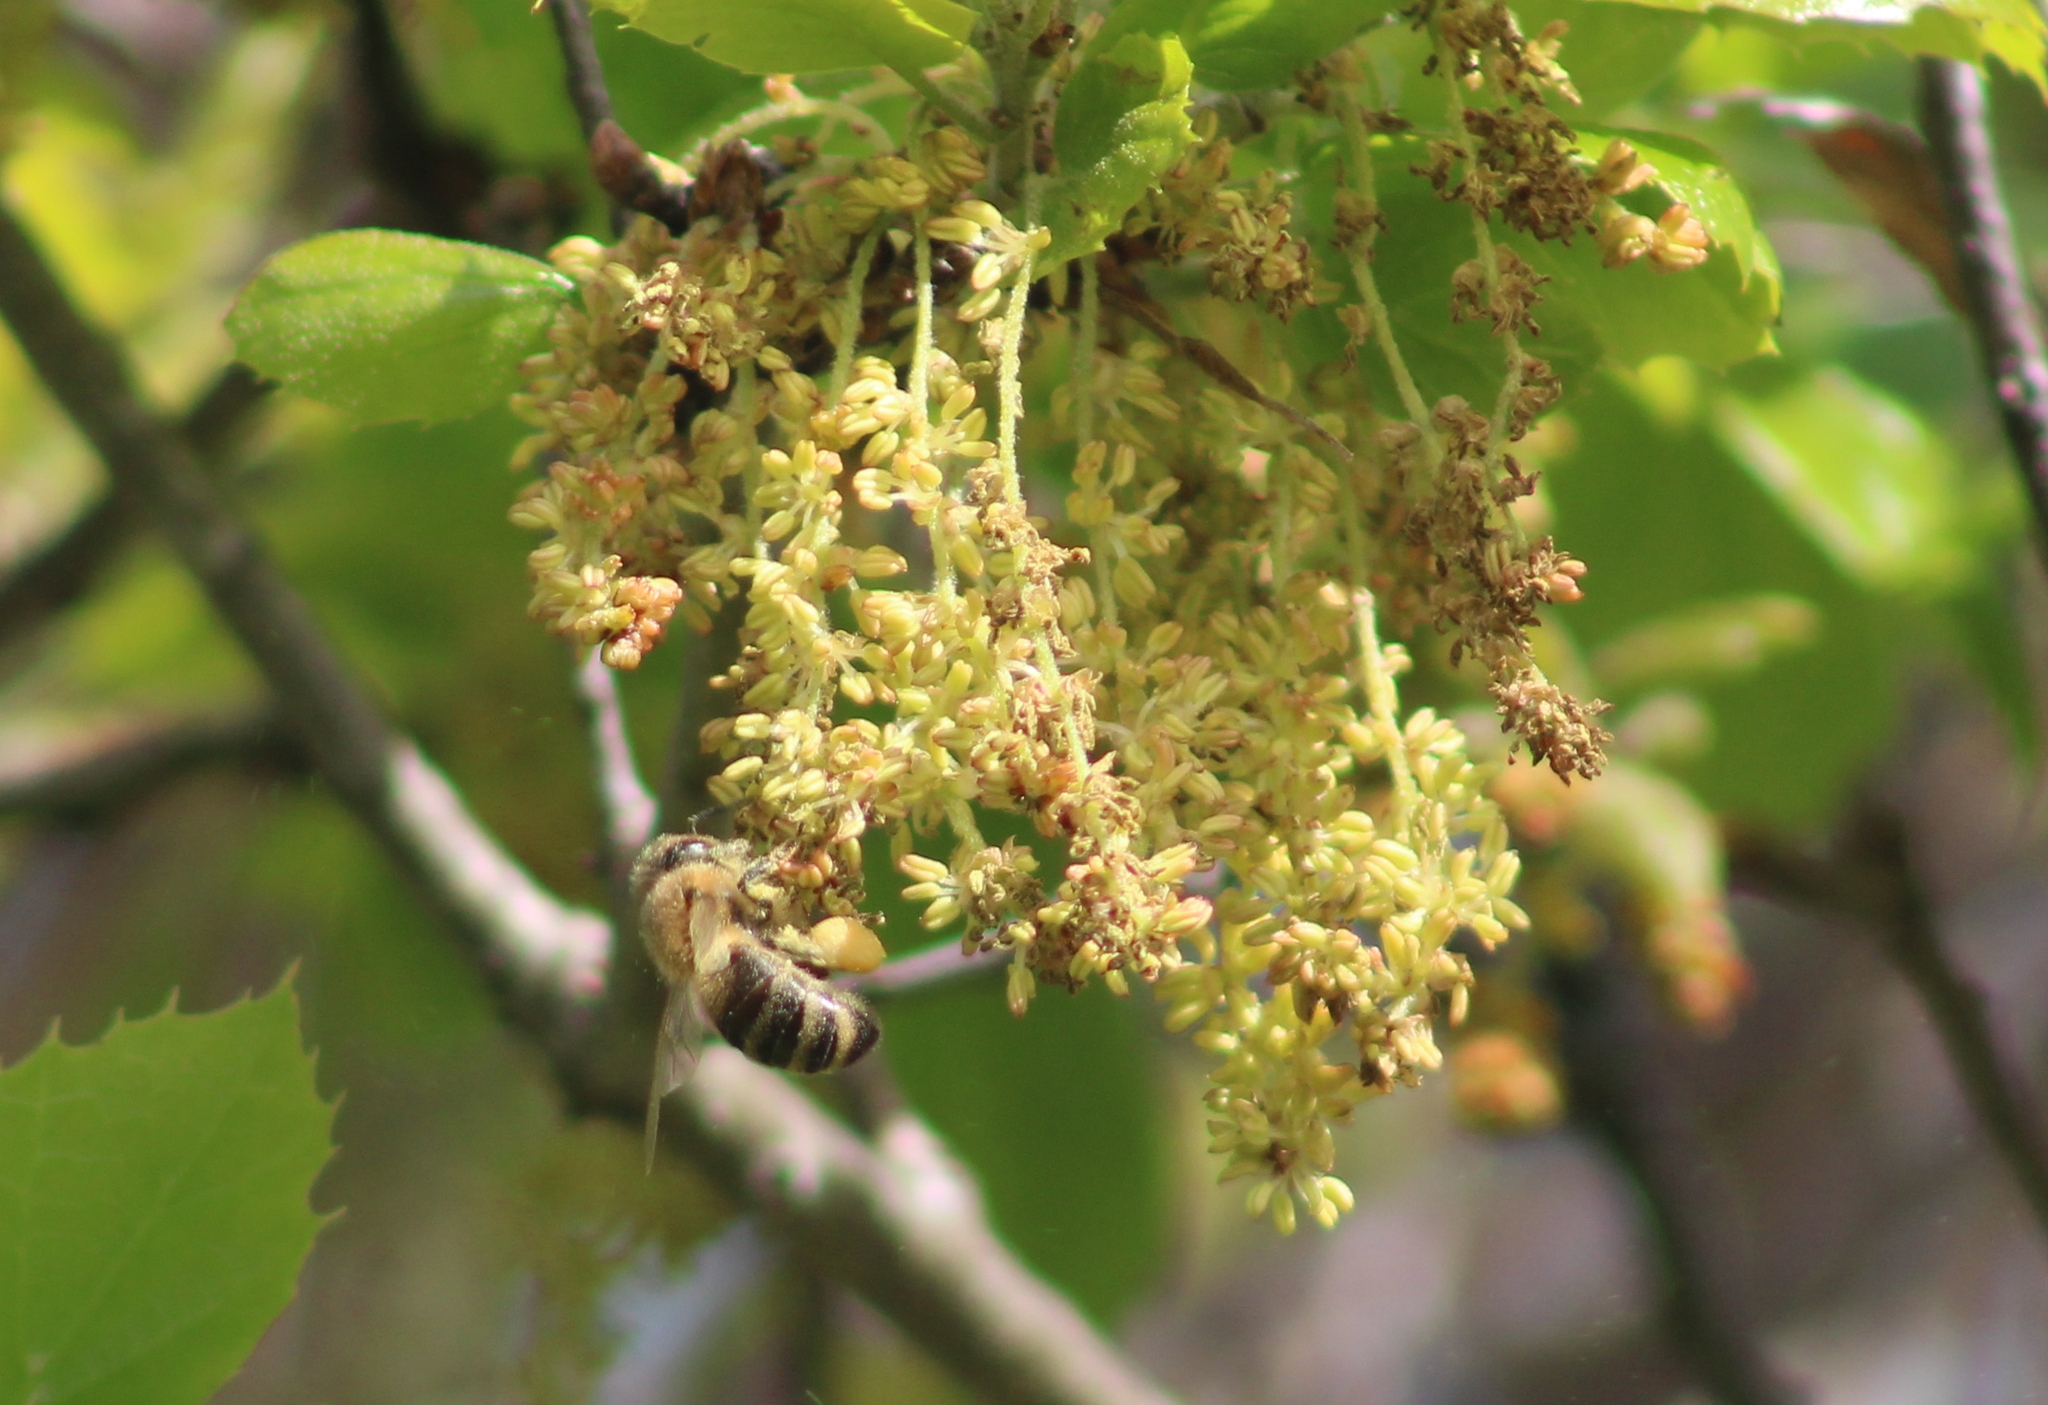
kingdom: Animalia
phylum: Arthropoda
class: Insecta
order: Hymenoptera
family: Apidae
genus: Apis
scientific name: Apis mellifera
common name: Honey bee
